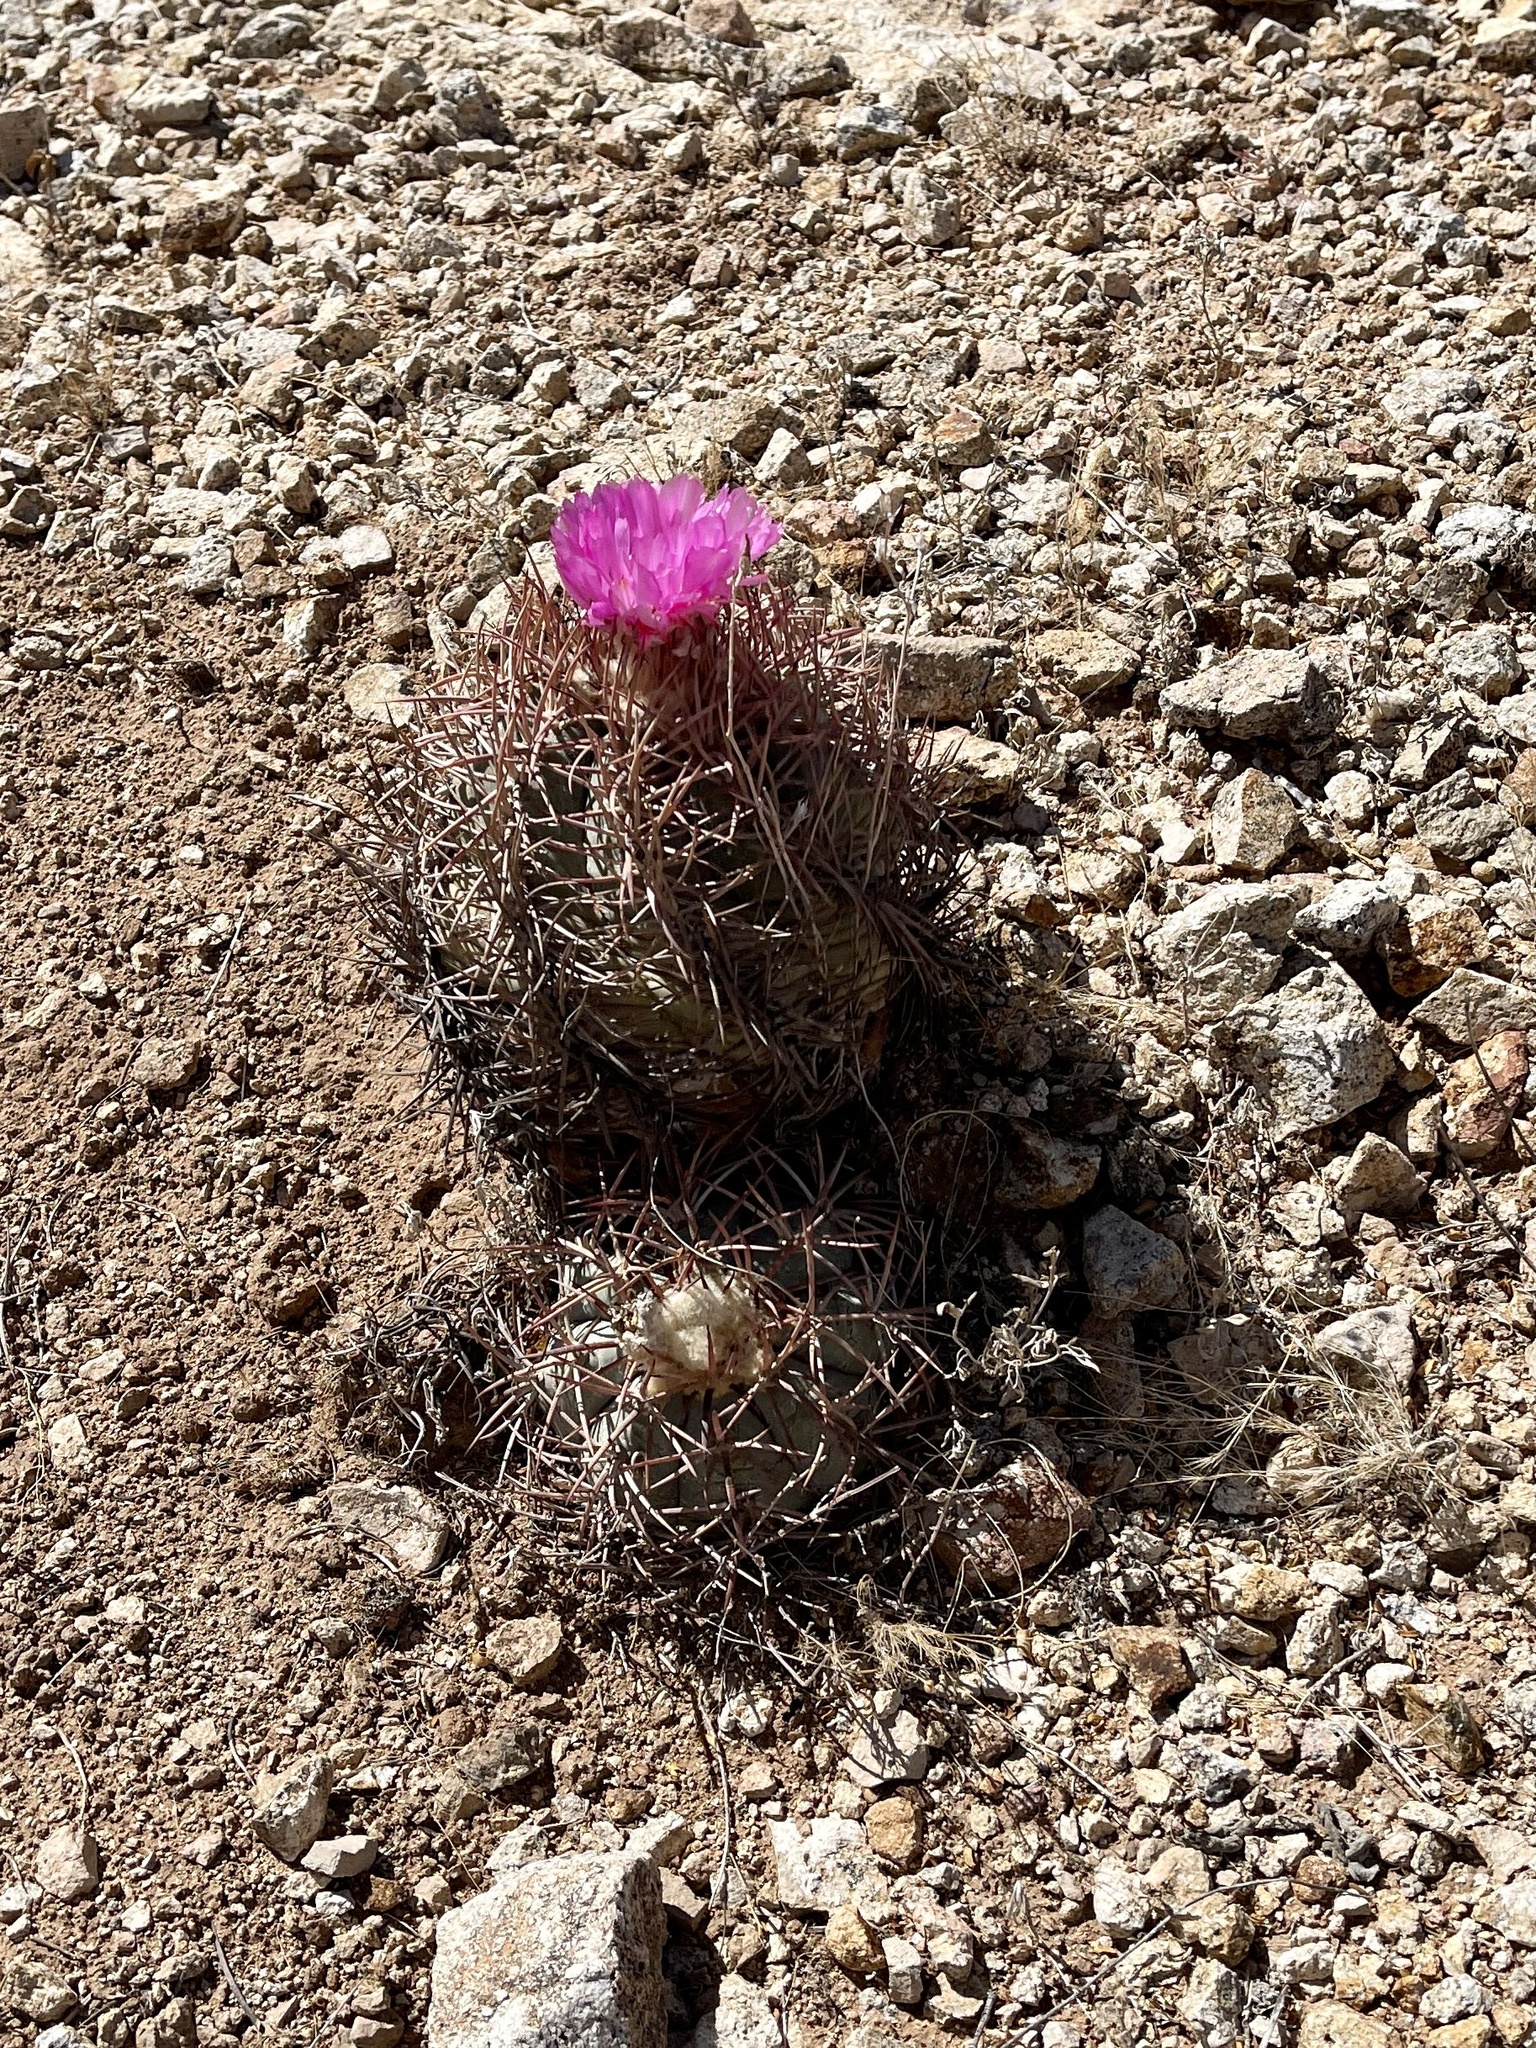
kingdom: Plantae
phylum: Tracheophyta
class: Magnoliopsida
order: Caryophyllales
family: Cactaceae
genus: Echinocactus
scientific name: Echinocactus horizonthalonius
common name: Devilshead
